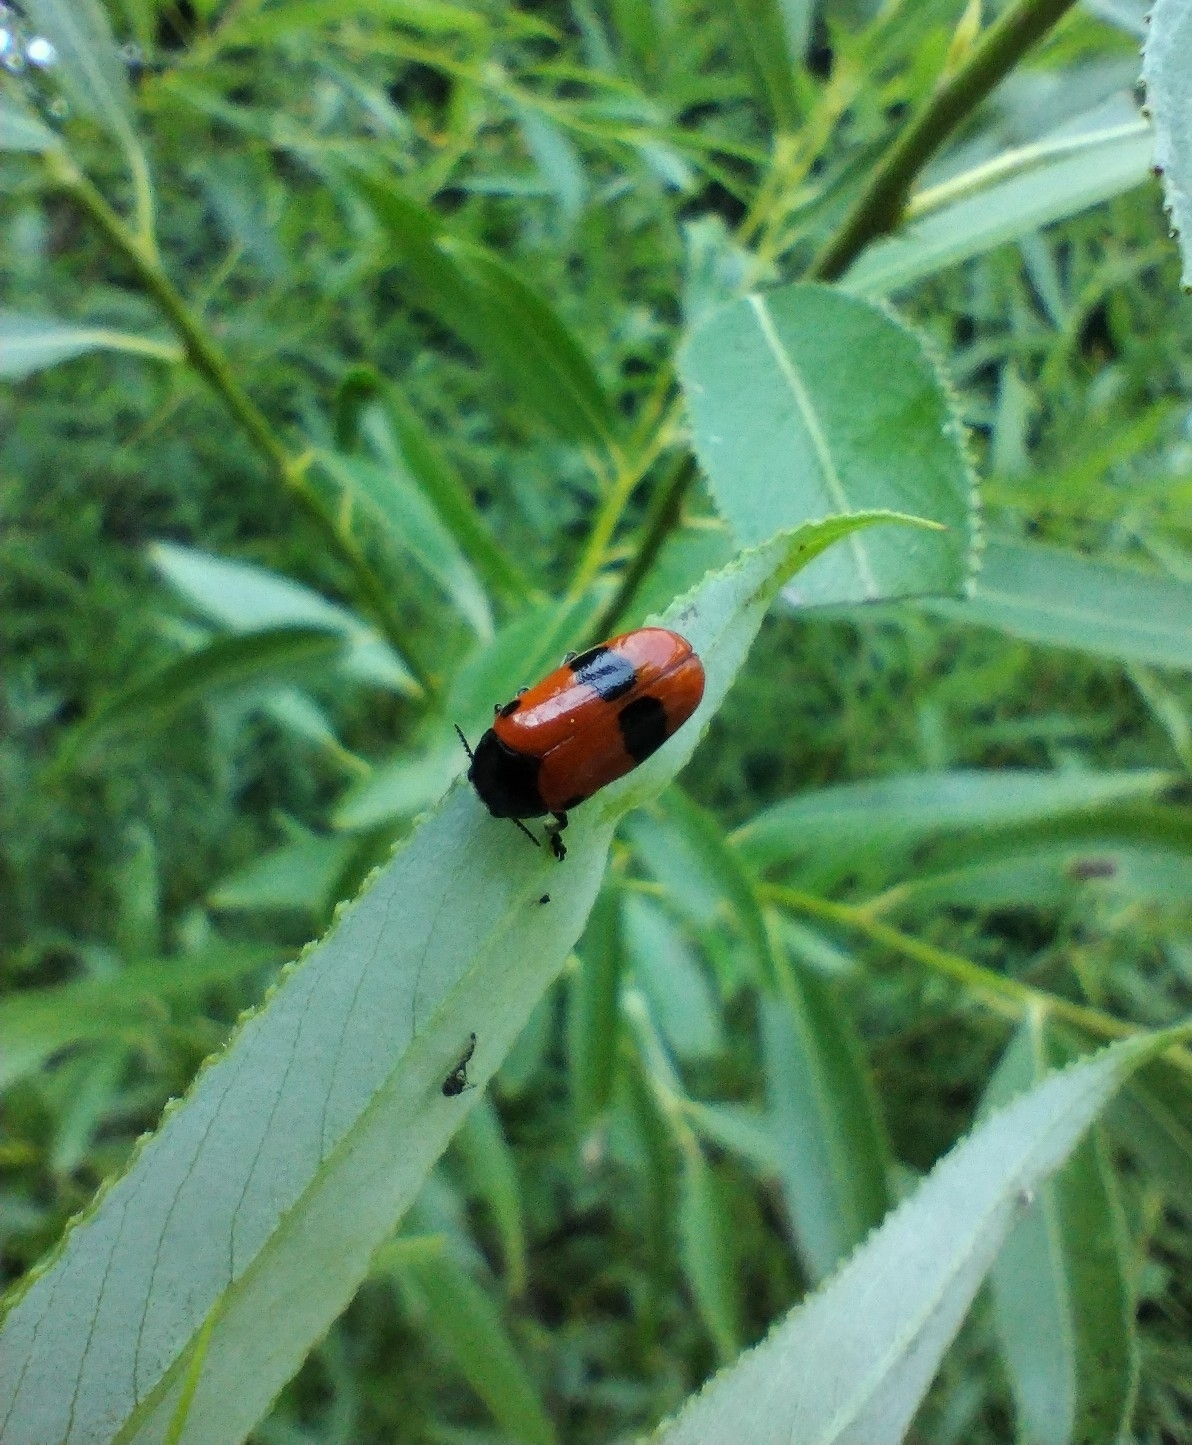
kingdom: Animalia
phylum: Arthropoda
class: Insecta
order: Coleoptera
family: Chrysomelidae
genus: Clytra
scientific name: Clytra laeviuscula
